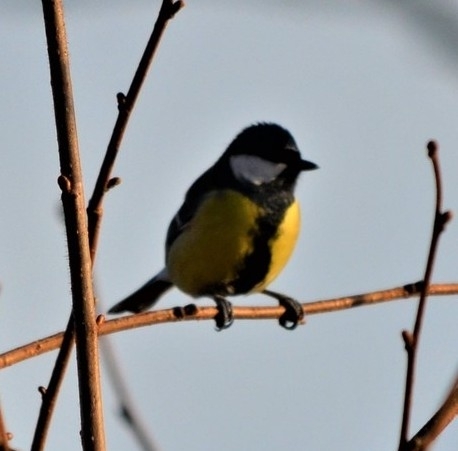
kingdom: Animalia
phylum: Chordata
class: Aves
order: Passeriformes
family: Paridae
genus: Parus
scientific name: Parus major
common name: Great tit
